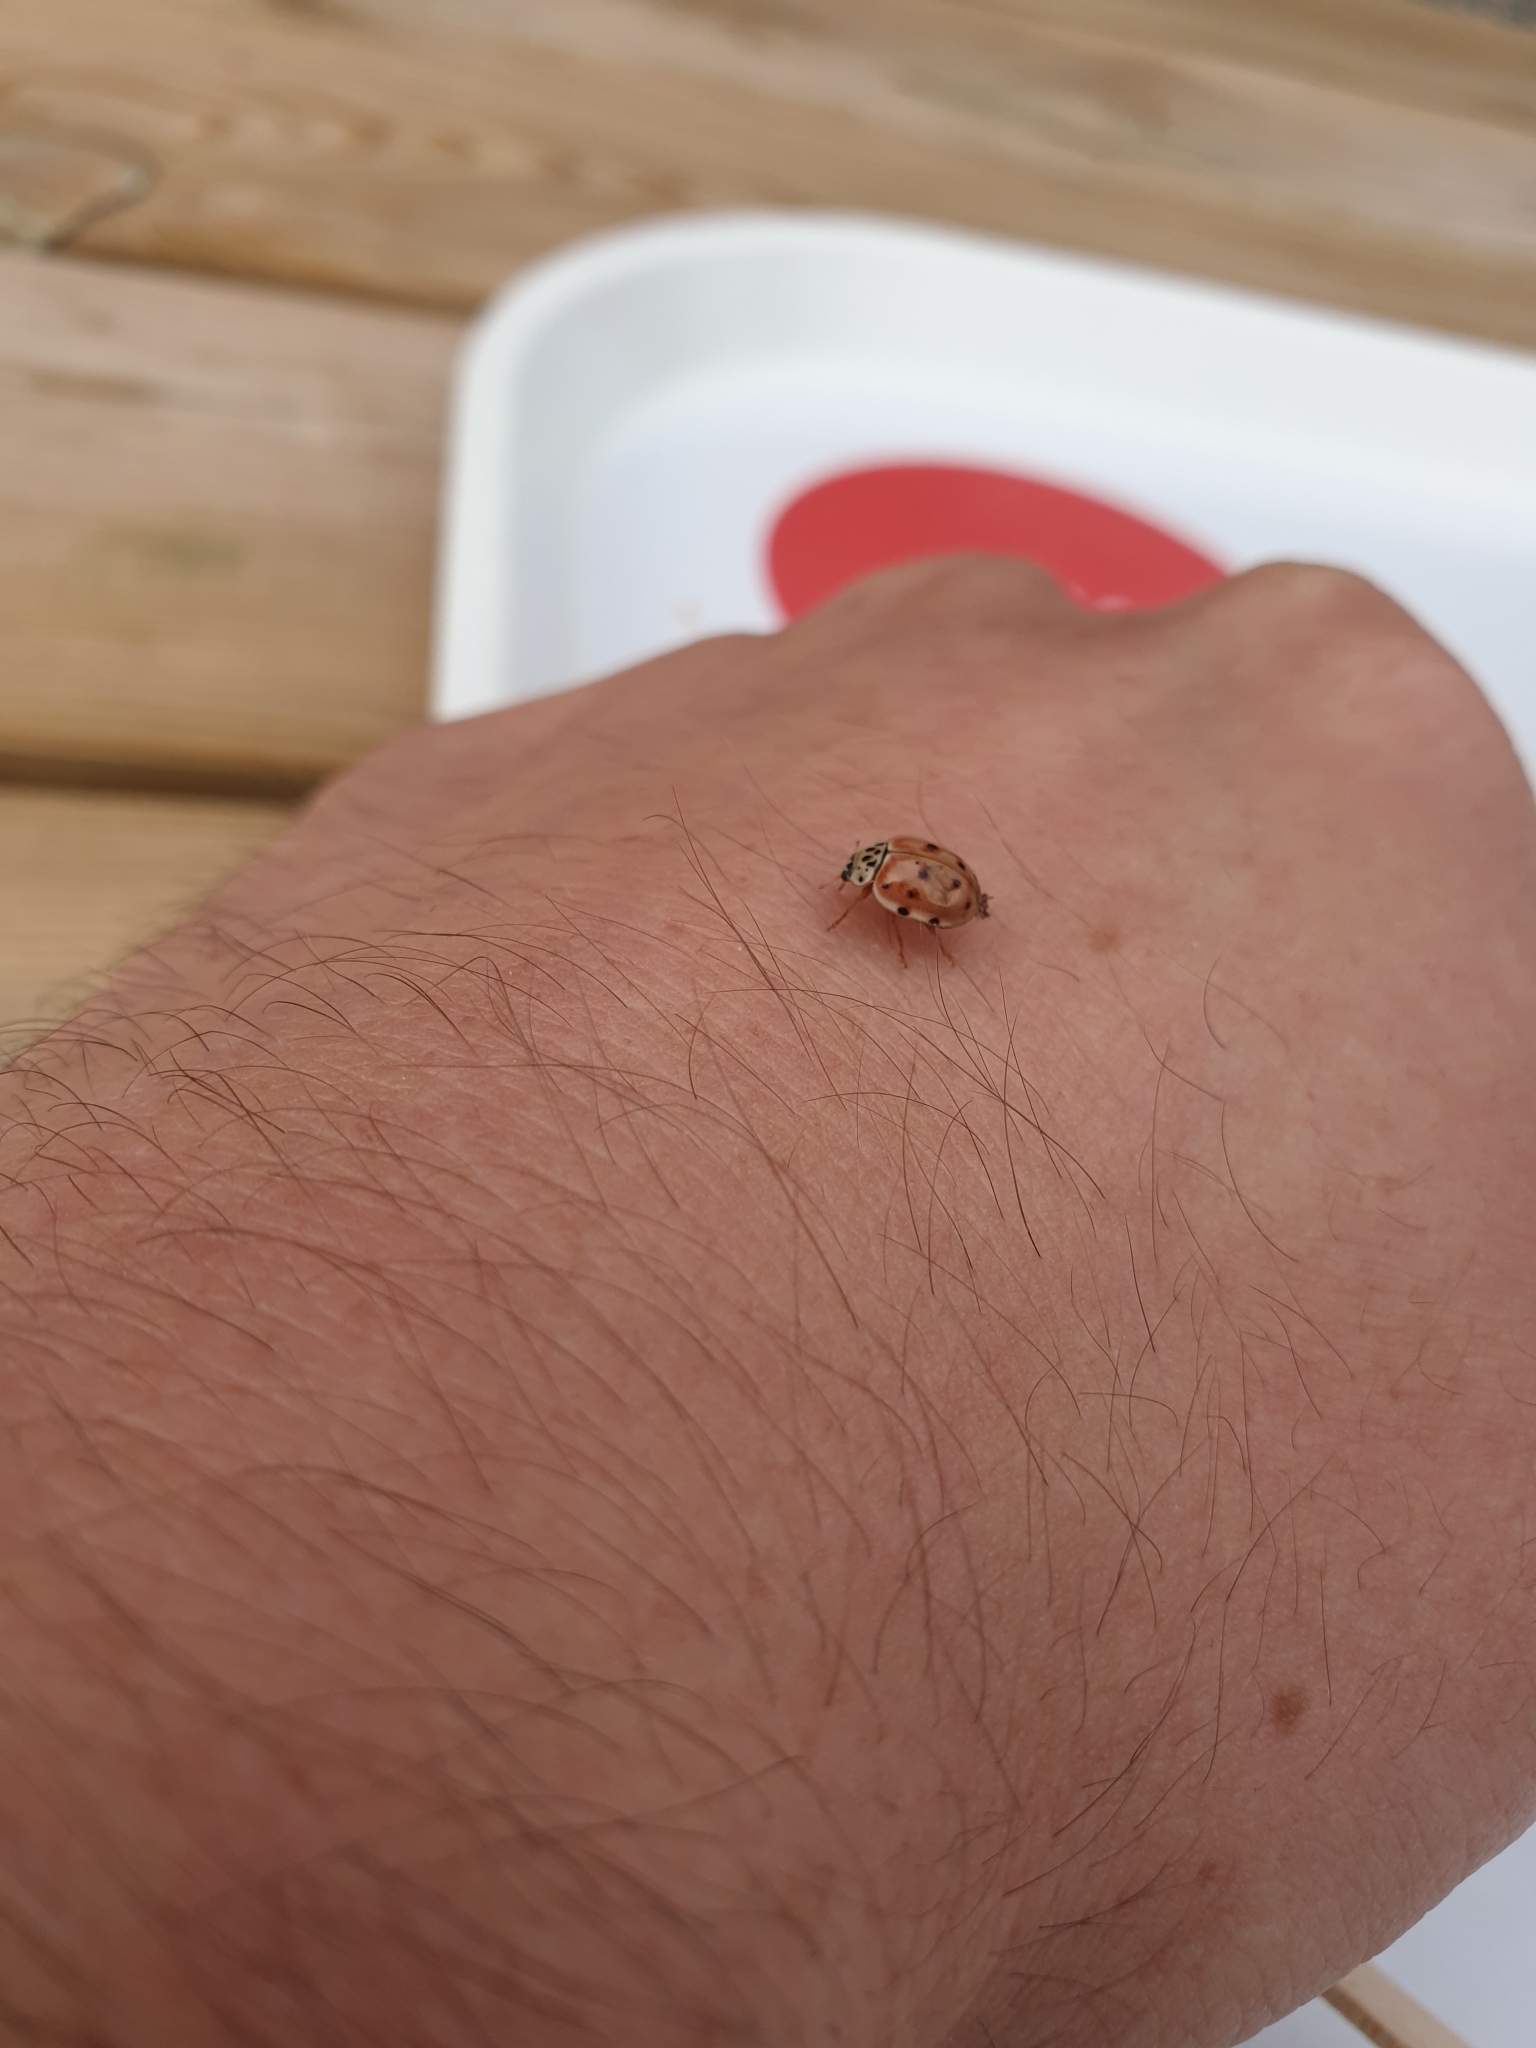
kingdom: Animalia
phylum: Arthropoda
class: Insecta
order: Coleoptera
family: Coccinellidae
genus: Harmonia
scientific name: Harmonia quadripunctata
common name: Cream-streaked ladybird
